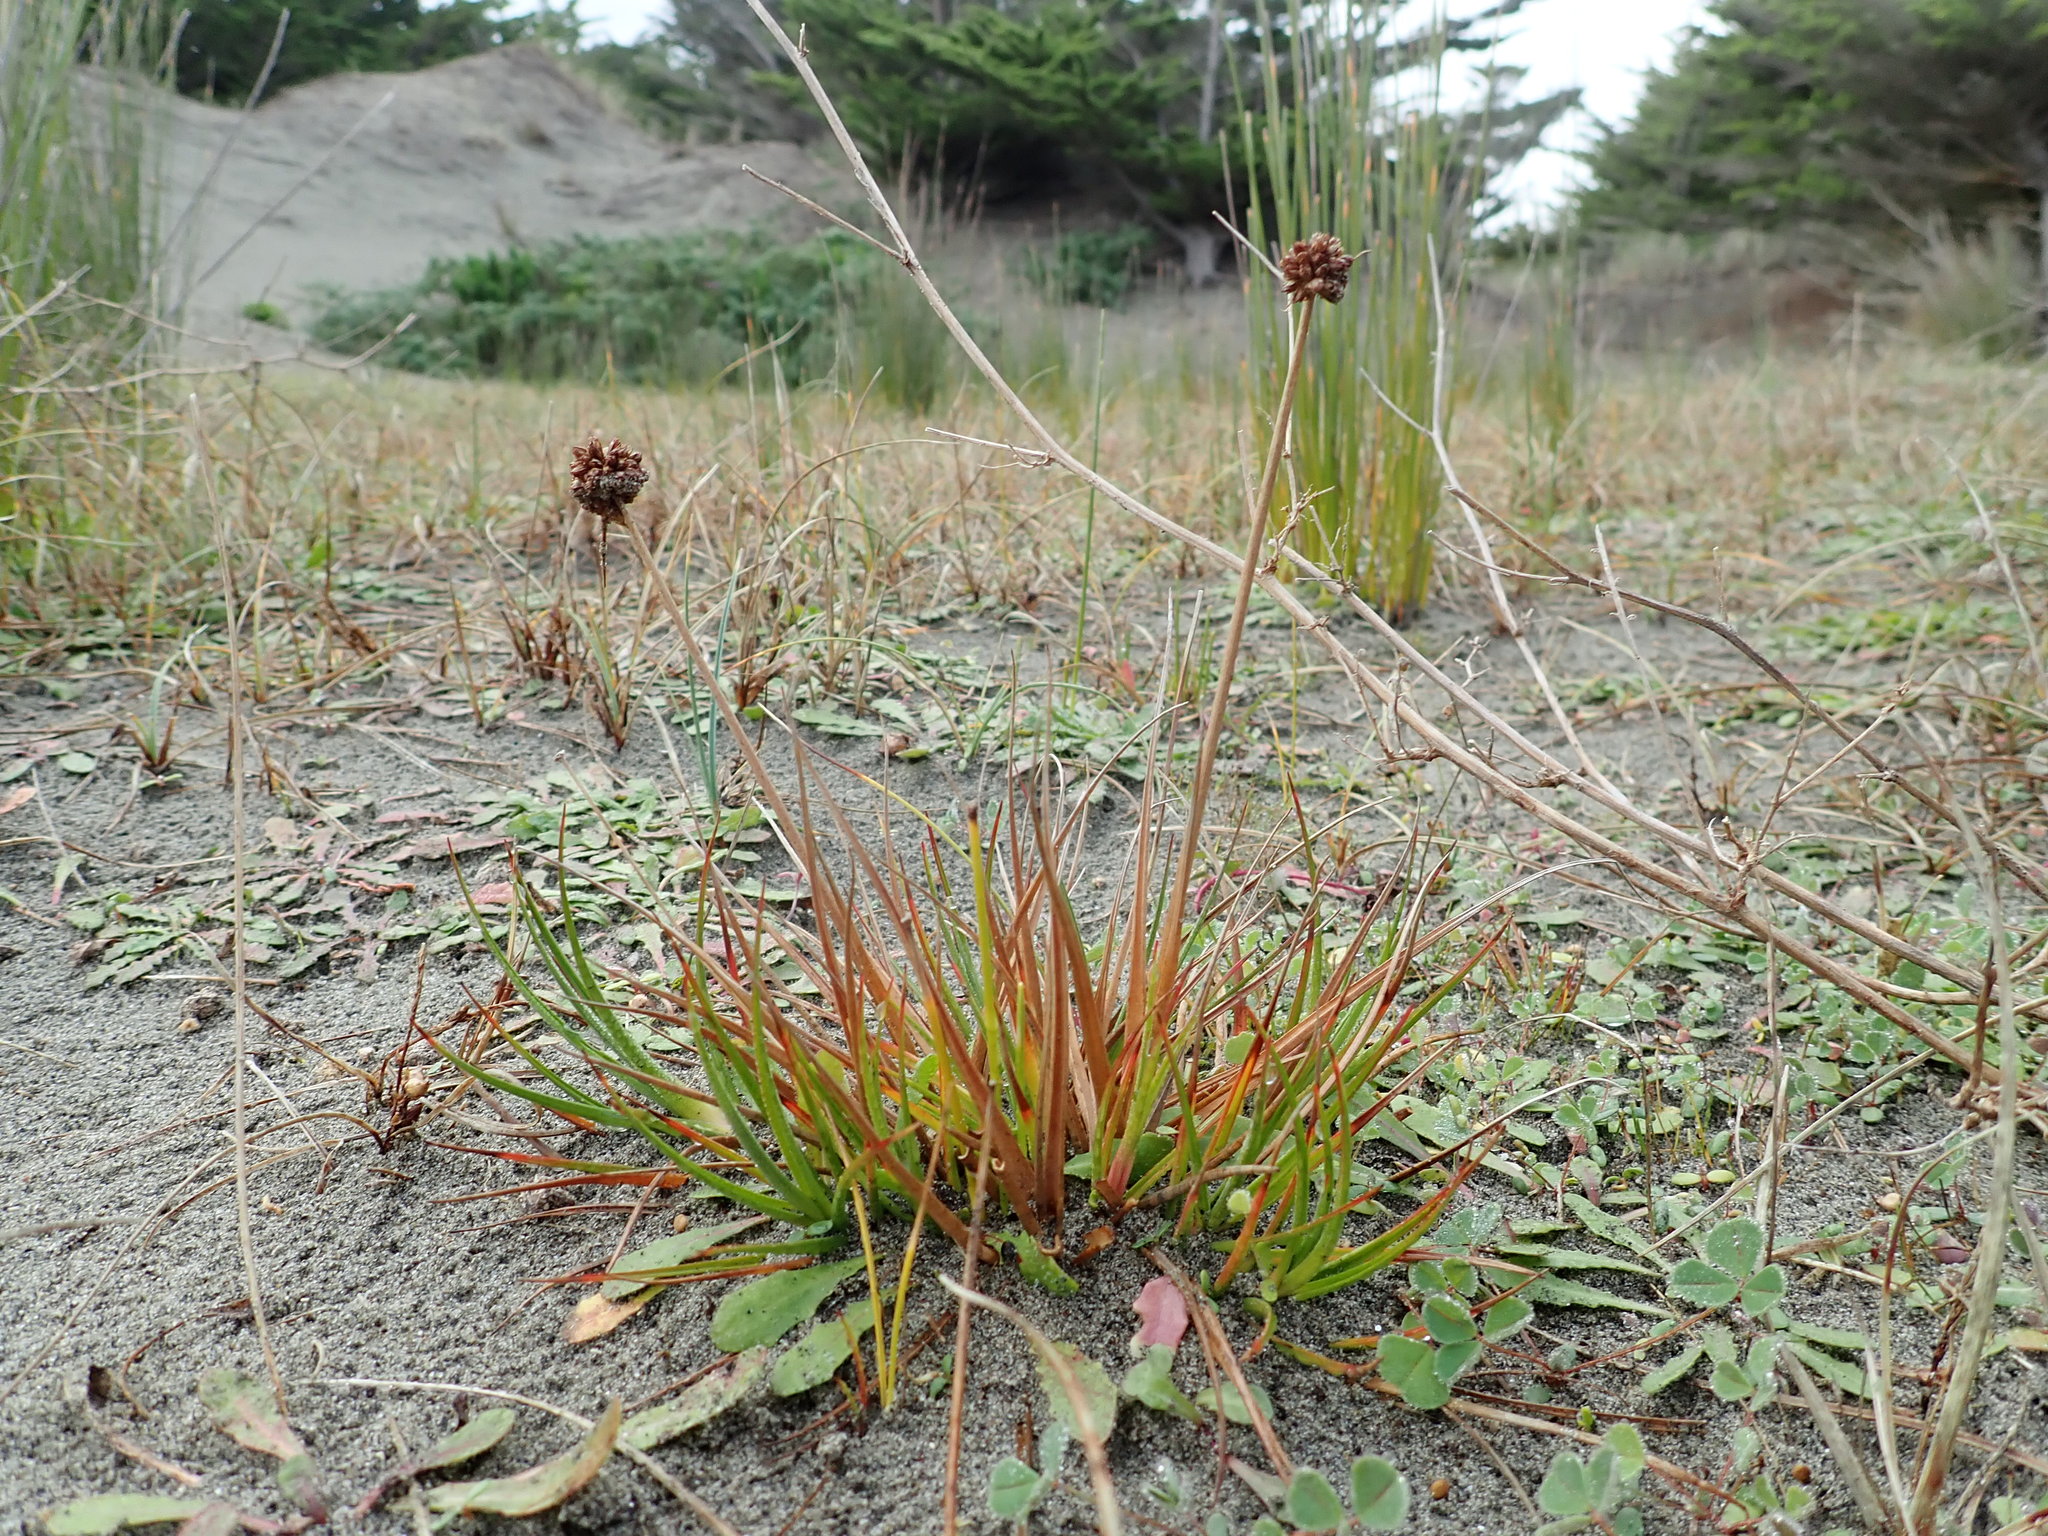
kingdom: Plantae
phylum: Tracheophyta
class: Liliopsida
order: Poales
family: Juncaceae
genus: Juncus
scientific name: Juncus caespiticius
